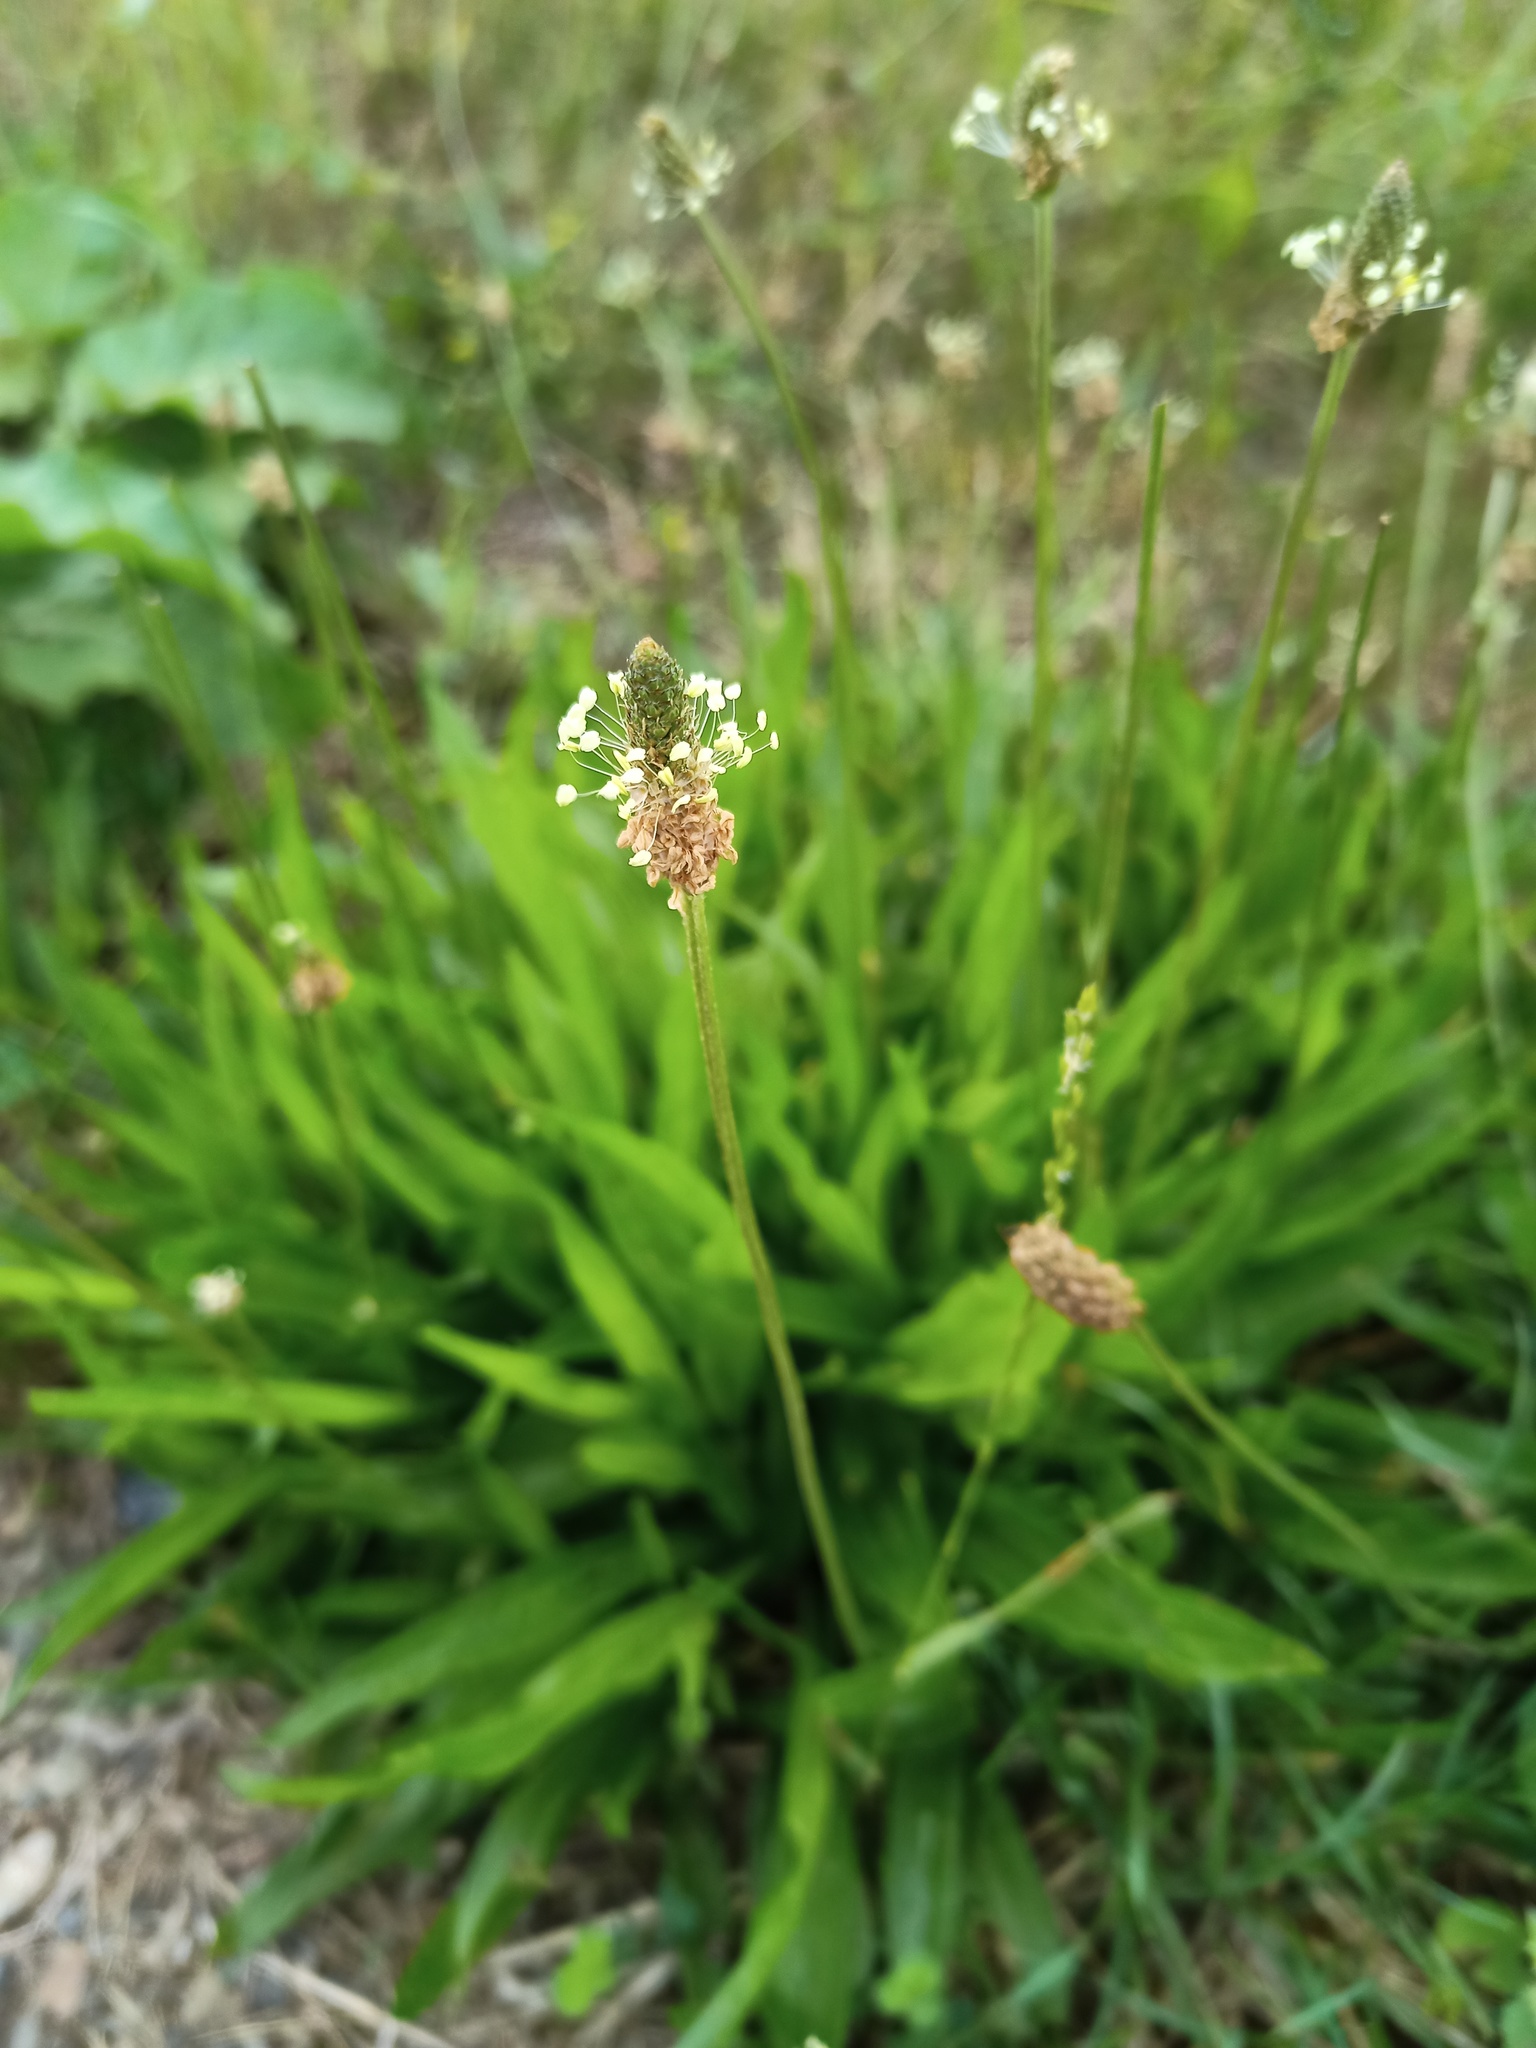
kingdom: Plantae
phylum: Tracheophyta
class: Magnoliopsida
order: Lamiales
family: Plantaginaceae
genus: Plantago
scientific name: Plantago lanceolata
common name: Ribwort plantain
